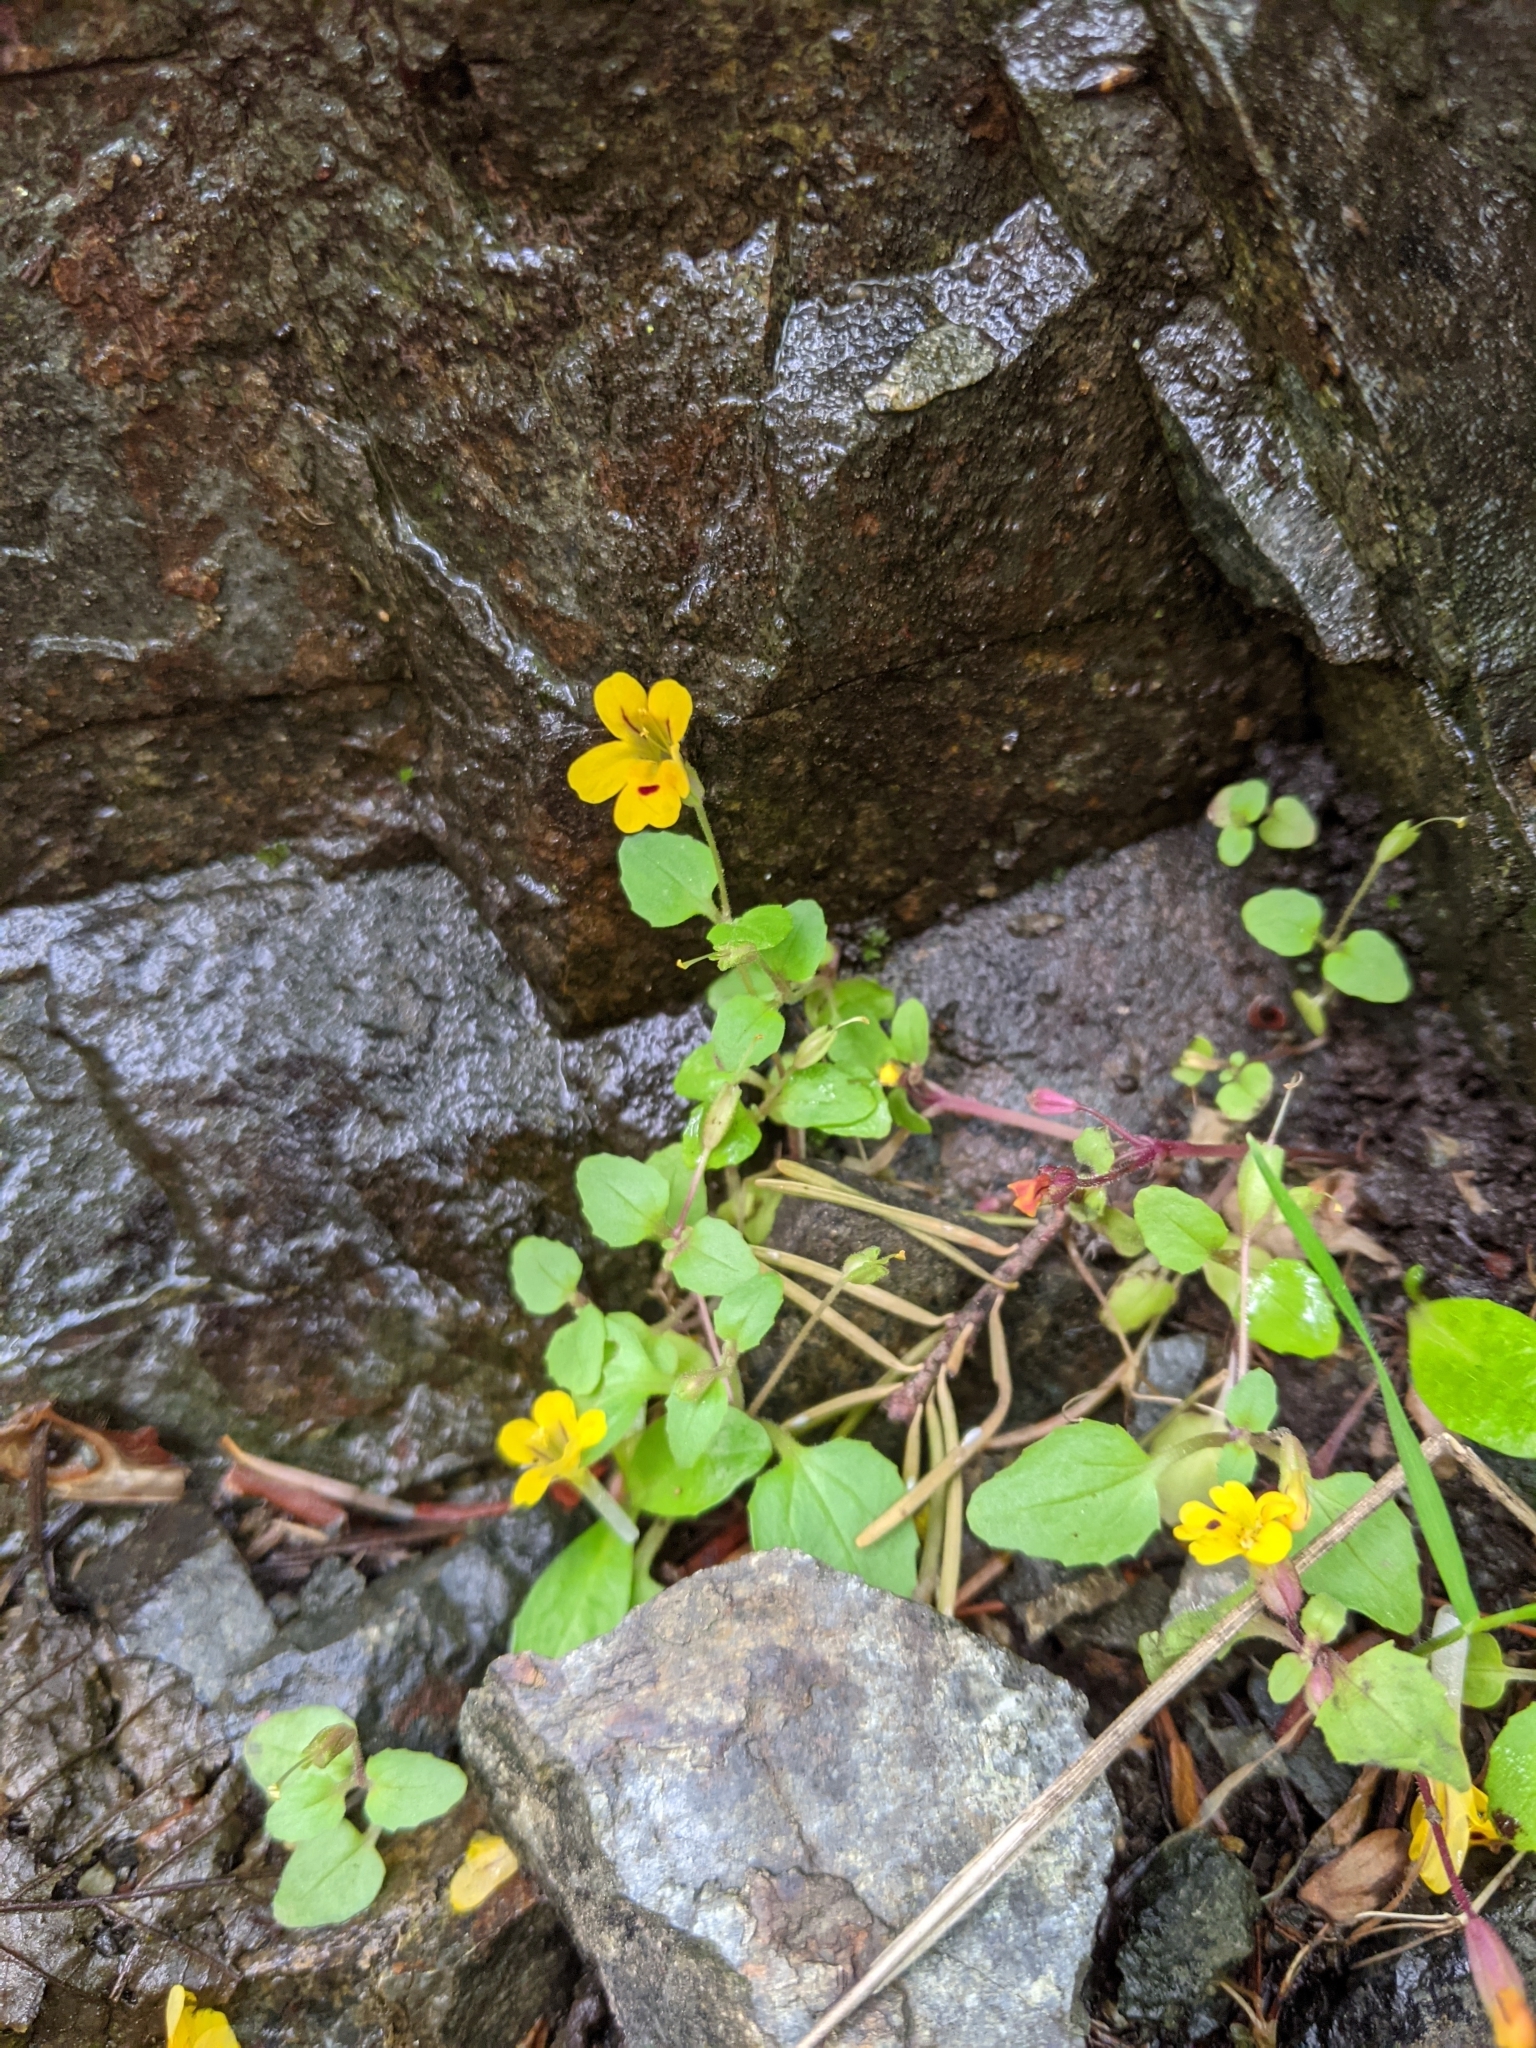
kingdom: Plantae
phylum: Tracheophyta
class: Magnoliopsida
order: Lamiales
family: Phrymaceae
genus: Erythranthe
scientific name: Erythranthe alsinoides
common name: Chickweed monkeyflower
